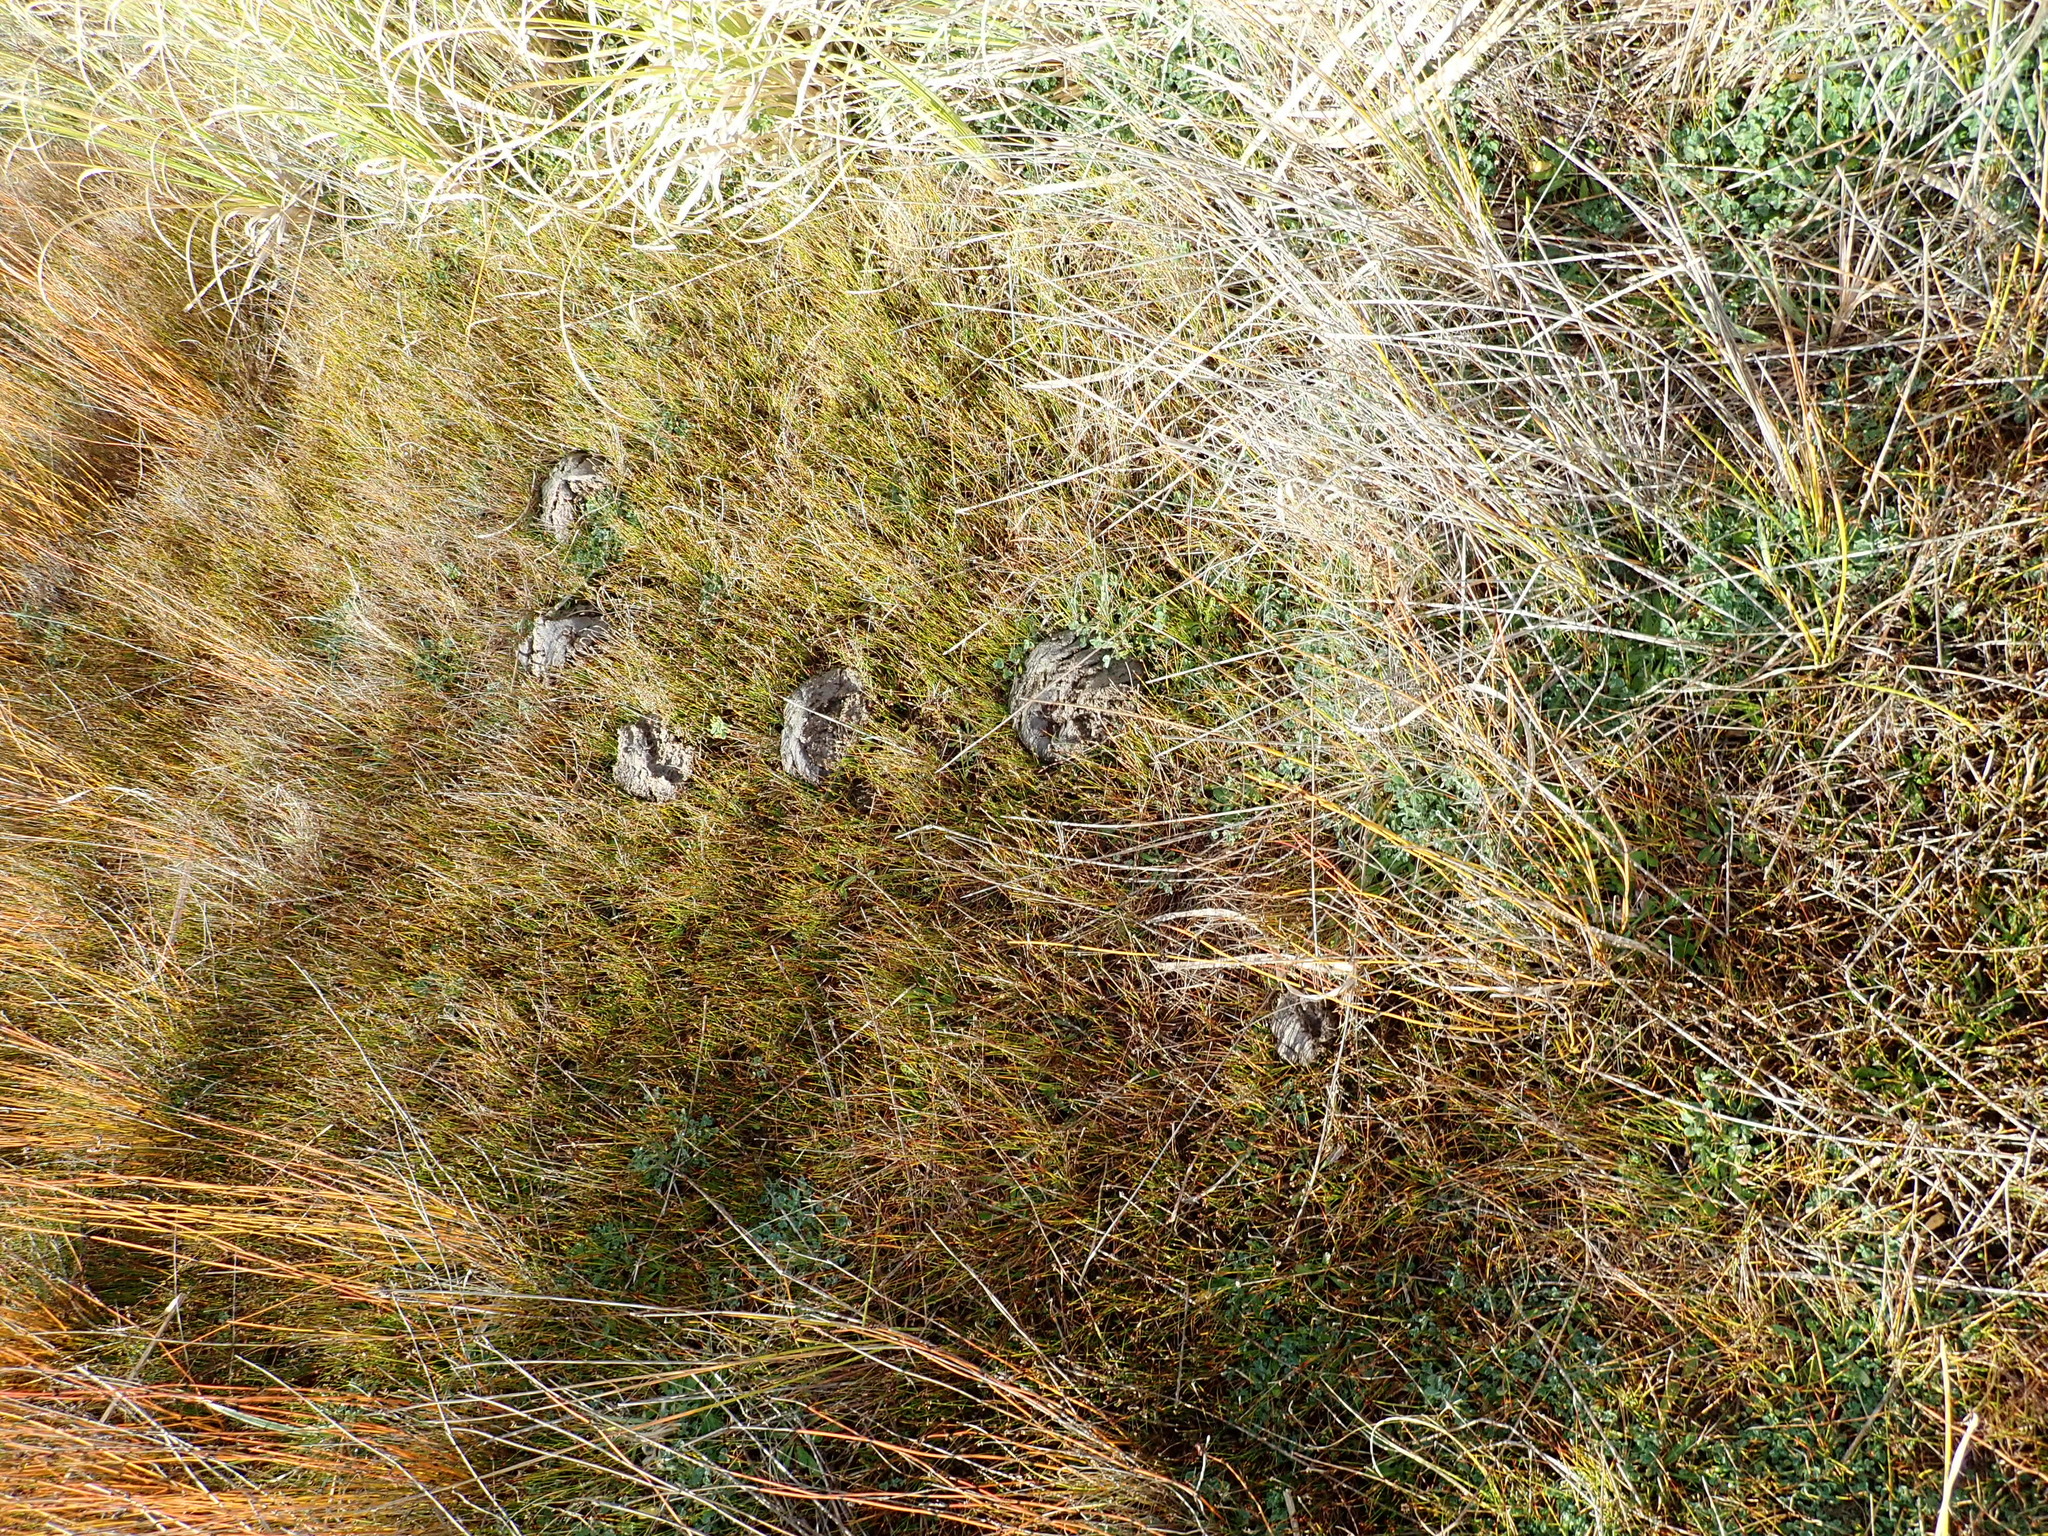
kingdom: Animalia
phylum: Chordata
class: Mammalia
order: Artiodactyla
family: Bovidae
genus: Bos
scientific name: Bos taurus
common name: Domesticated cattle
